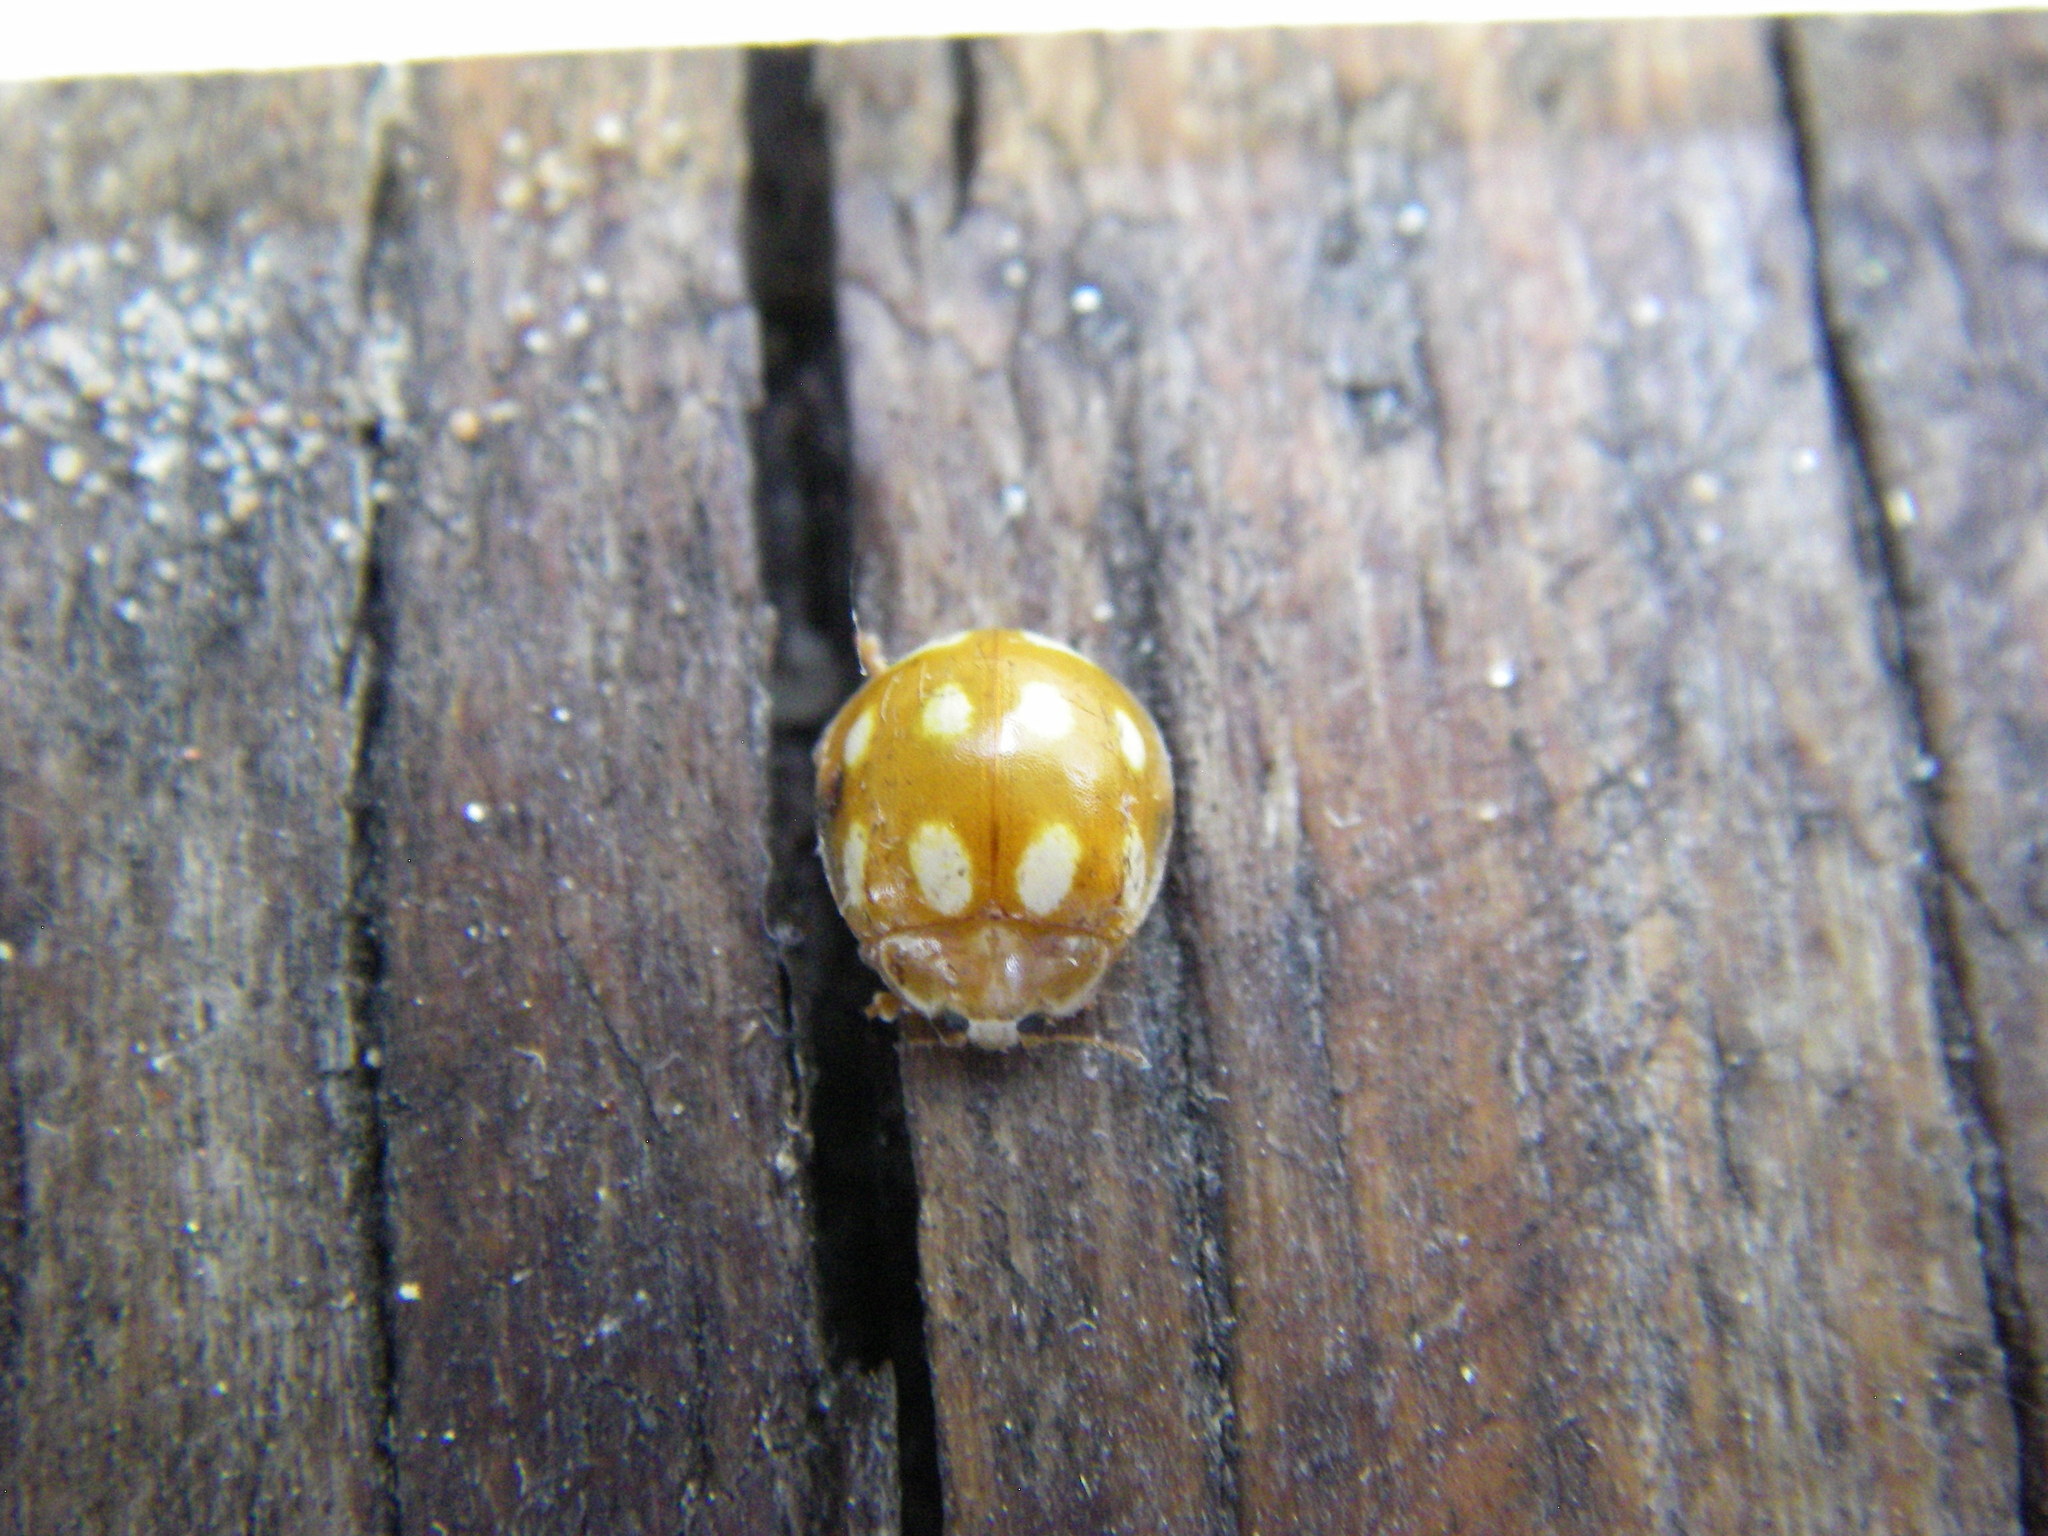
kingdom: Animalia
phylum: Arthropoda
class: Insecta
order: Coleoptera
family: Coccinellidae
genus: Calvia
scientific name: Calvia decemguttata
